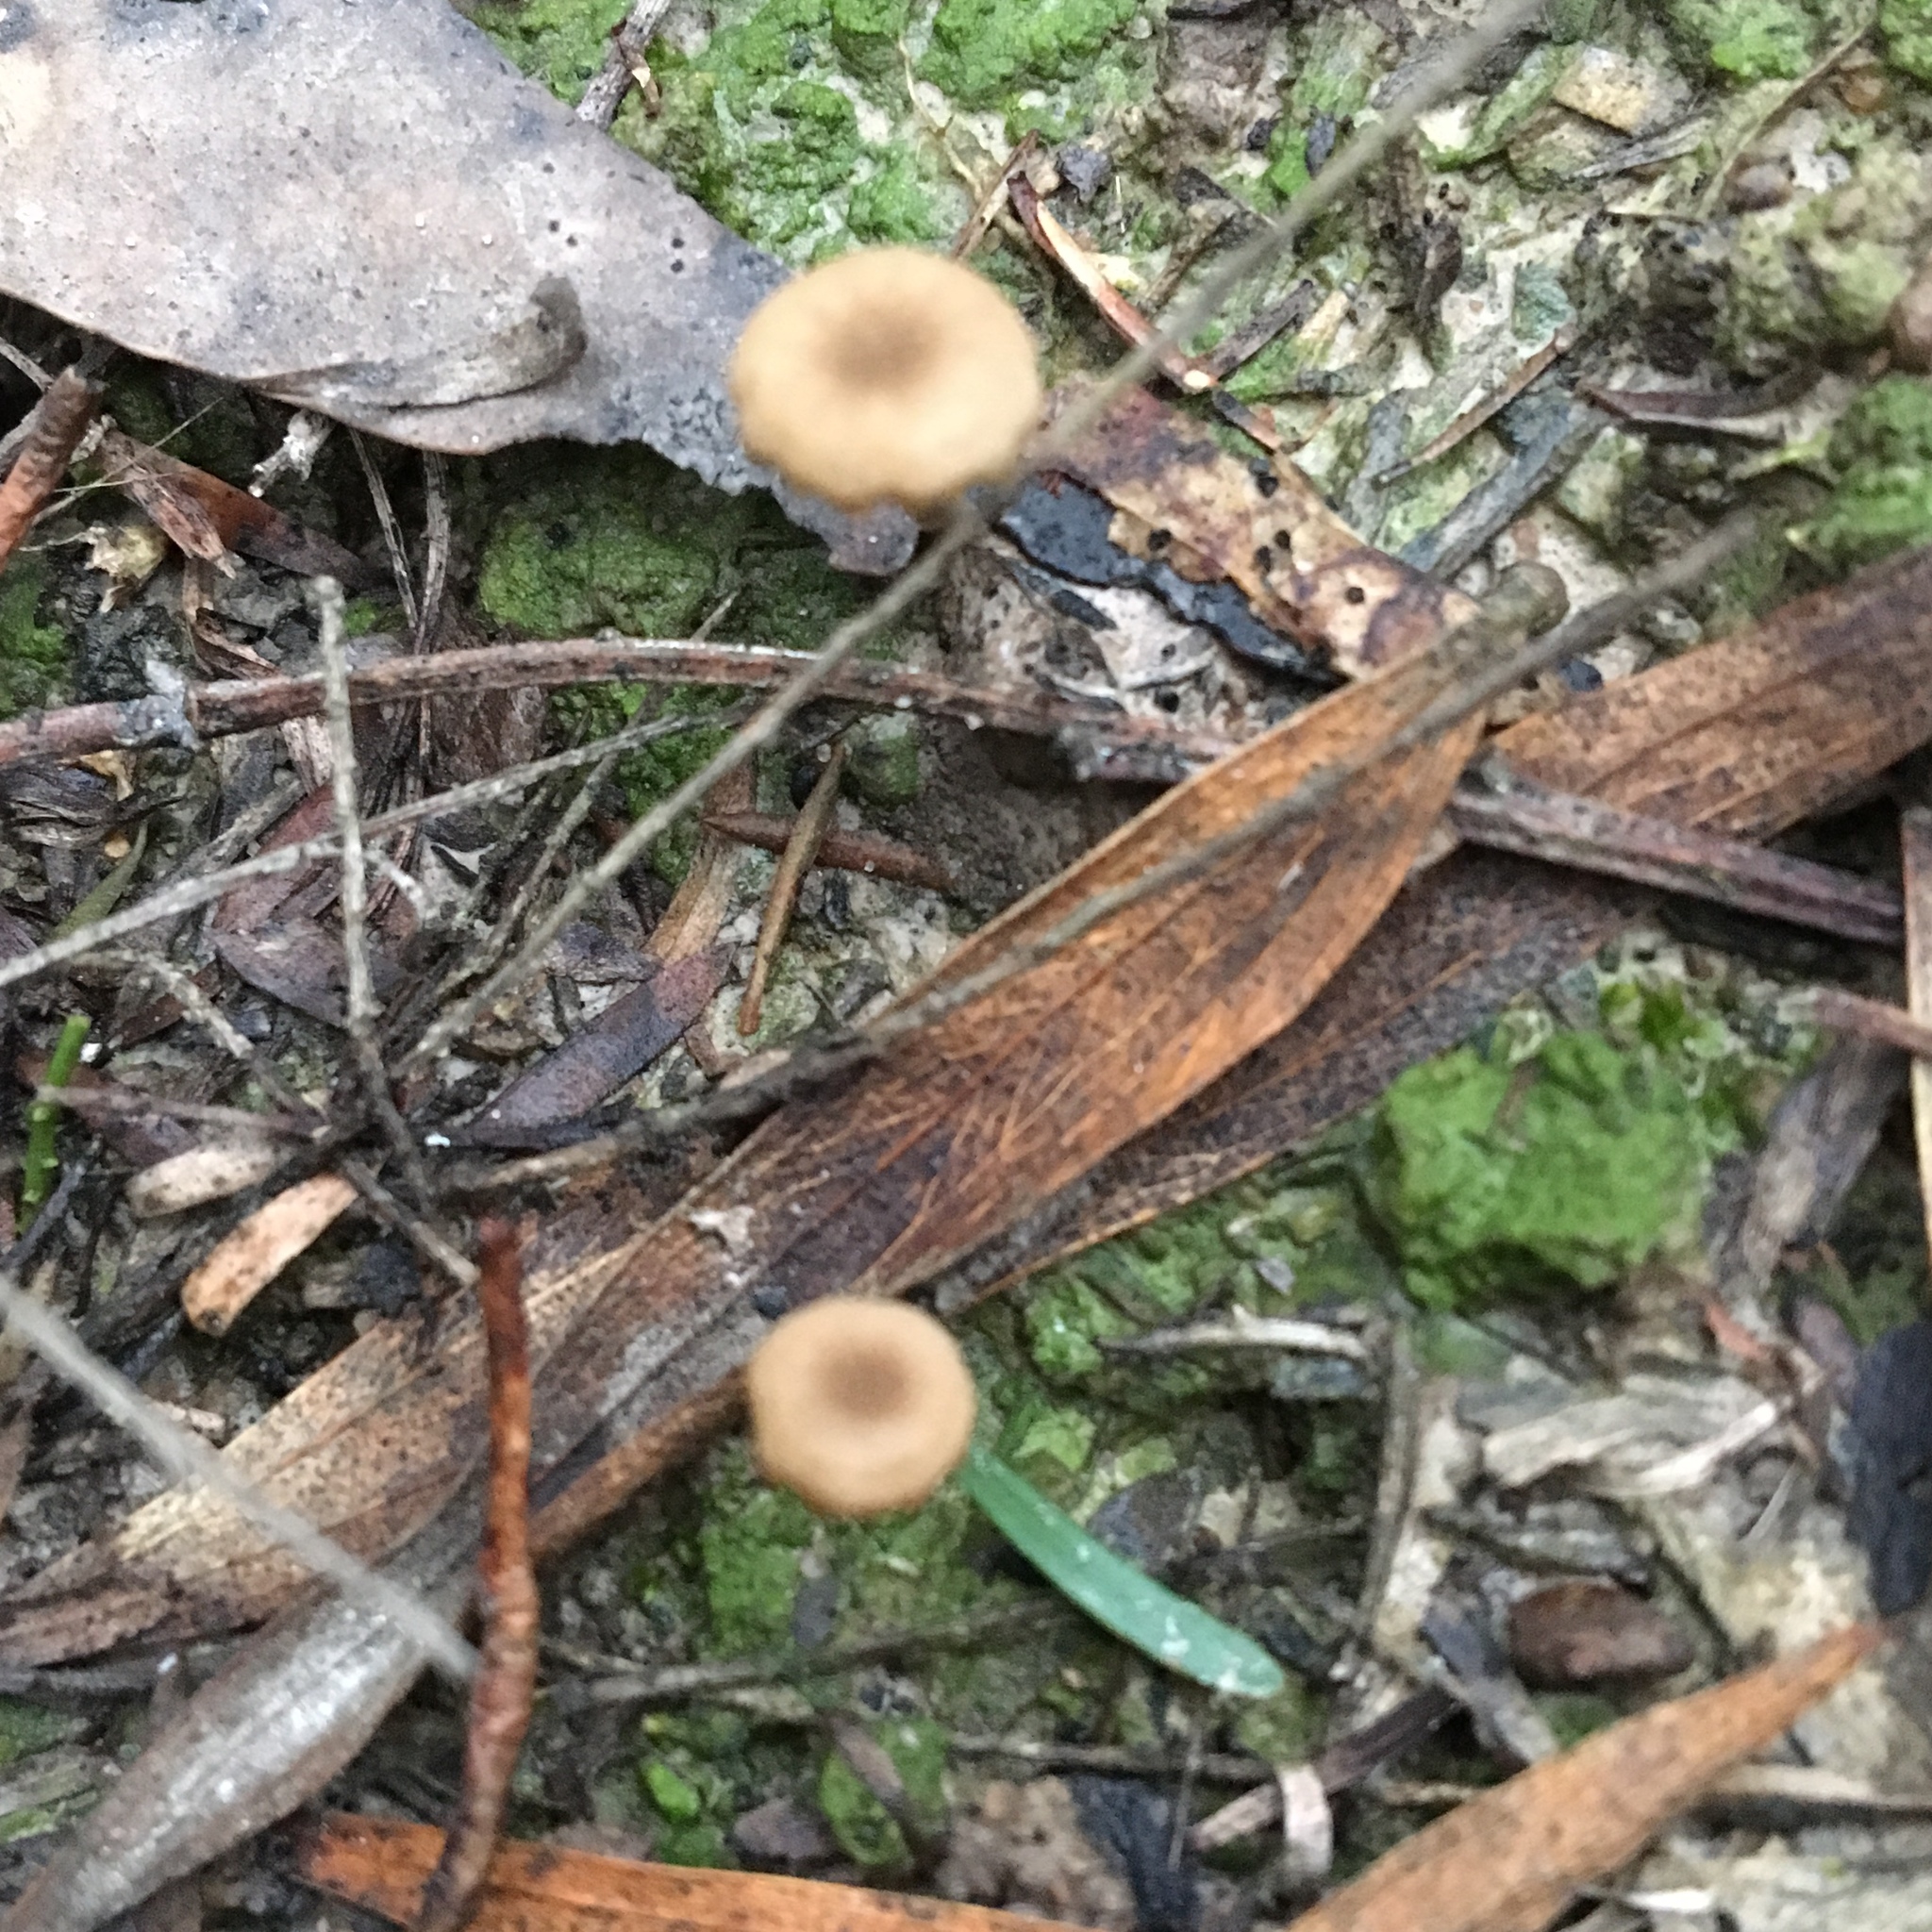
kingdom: Fungi
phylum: Basidiomycota
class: Agaricomycetes
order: Agaricales
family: Hygrophoraceae
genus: Lichenomphalia
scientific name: Lichenomphalia
